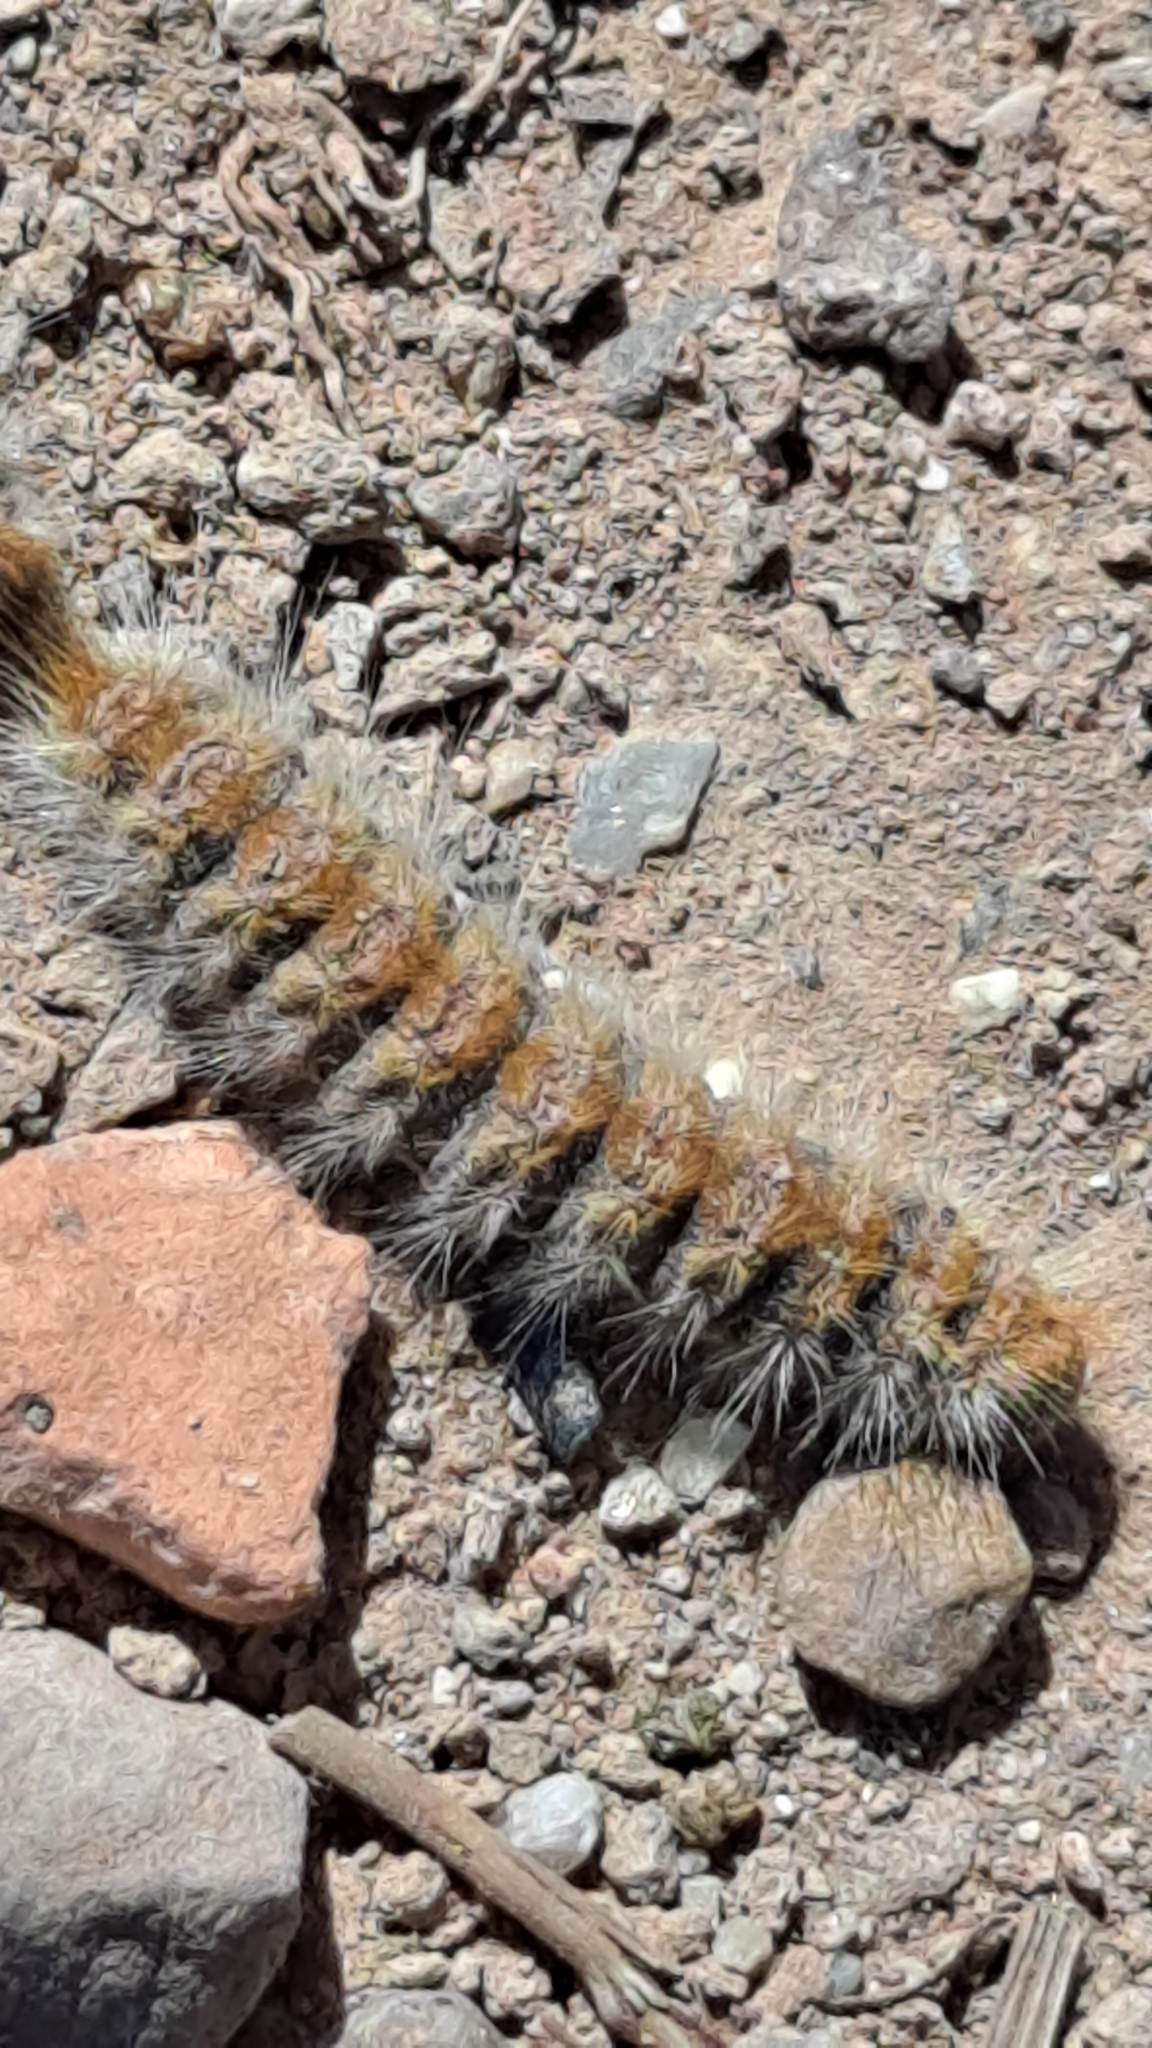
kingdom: Animalia
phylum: Arthropoda
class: Insecta
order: Lepidoptera
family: Notodontidae
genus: Thaumetopoea
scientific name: Thaumetopoea pityocampa
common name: Pine processionary
